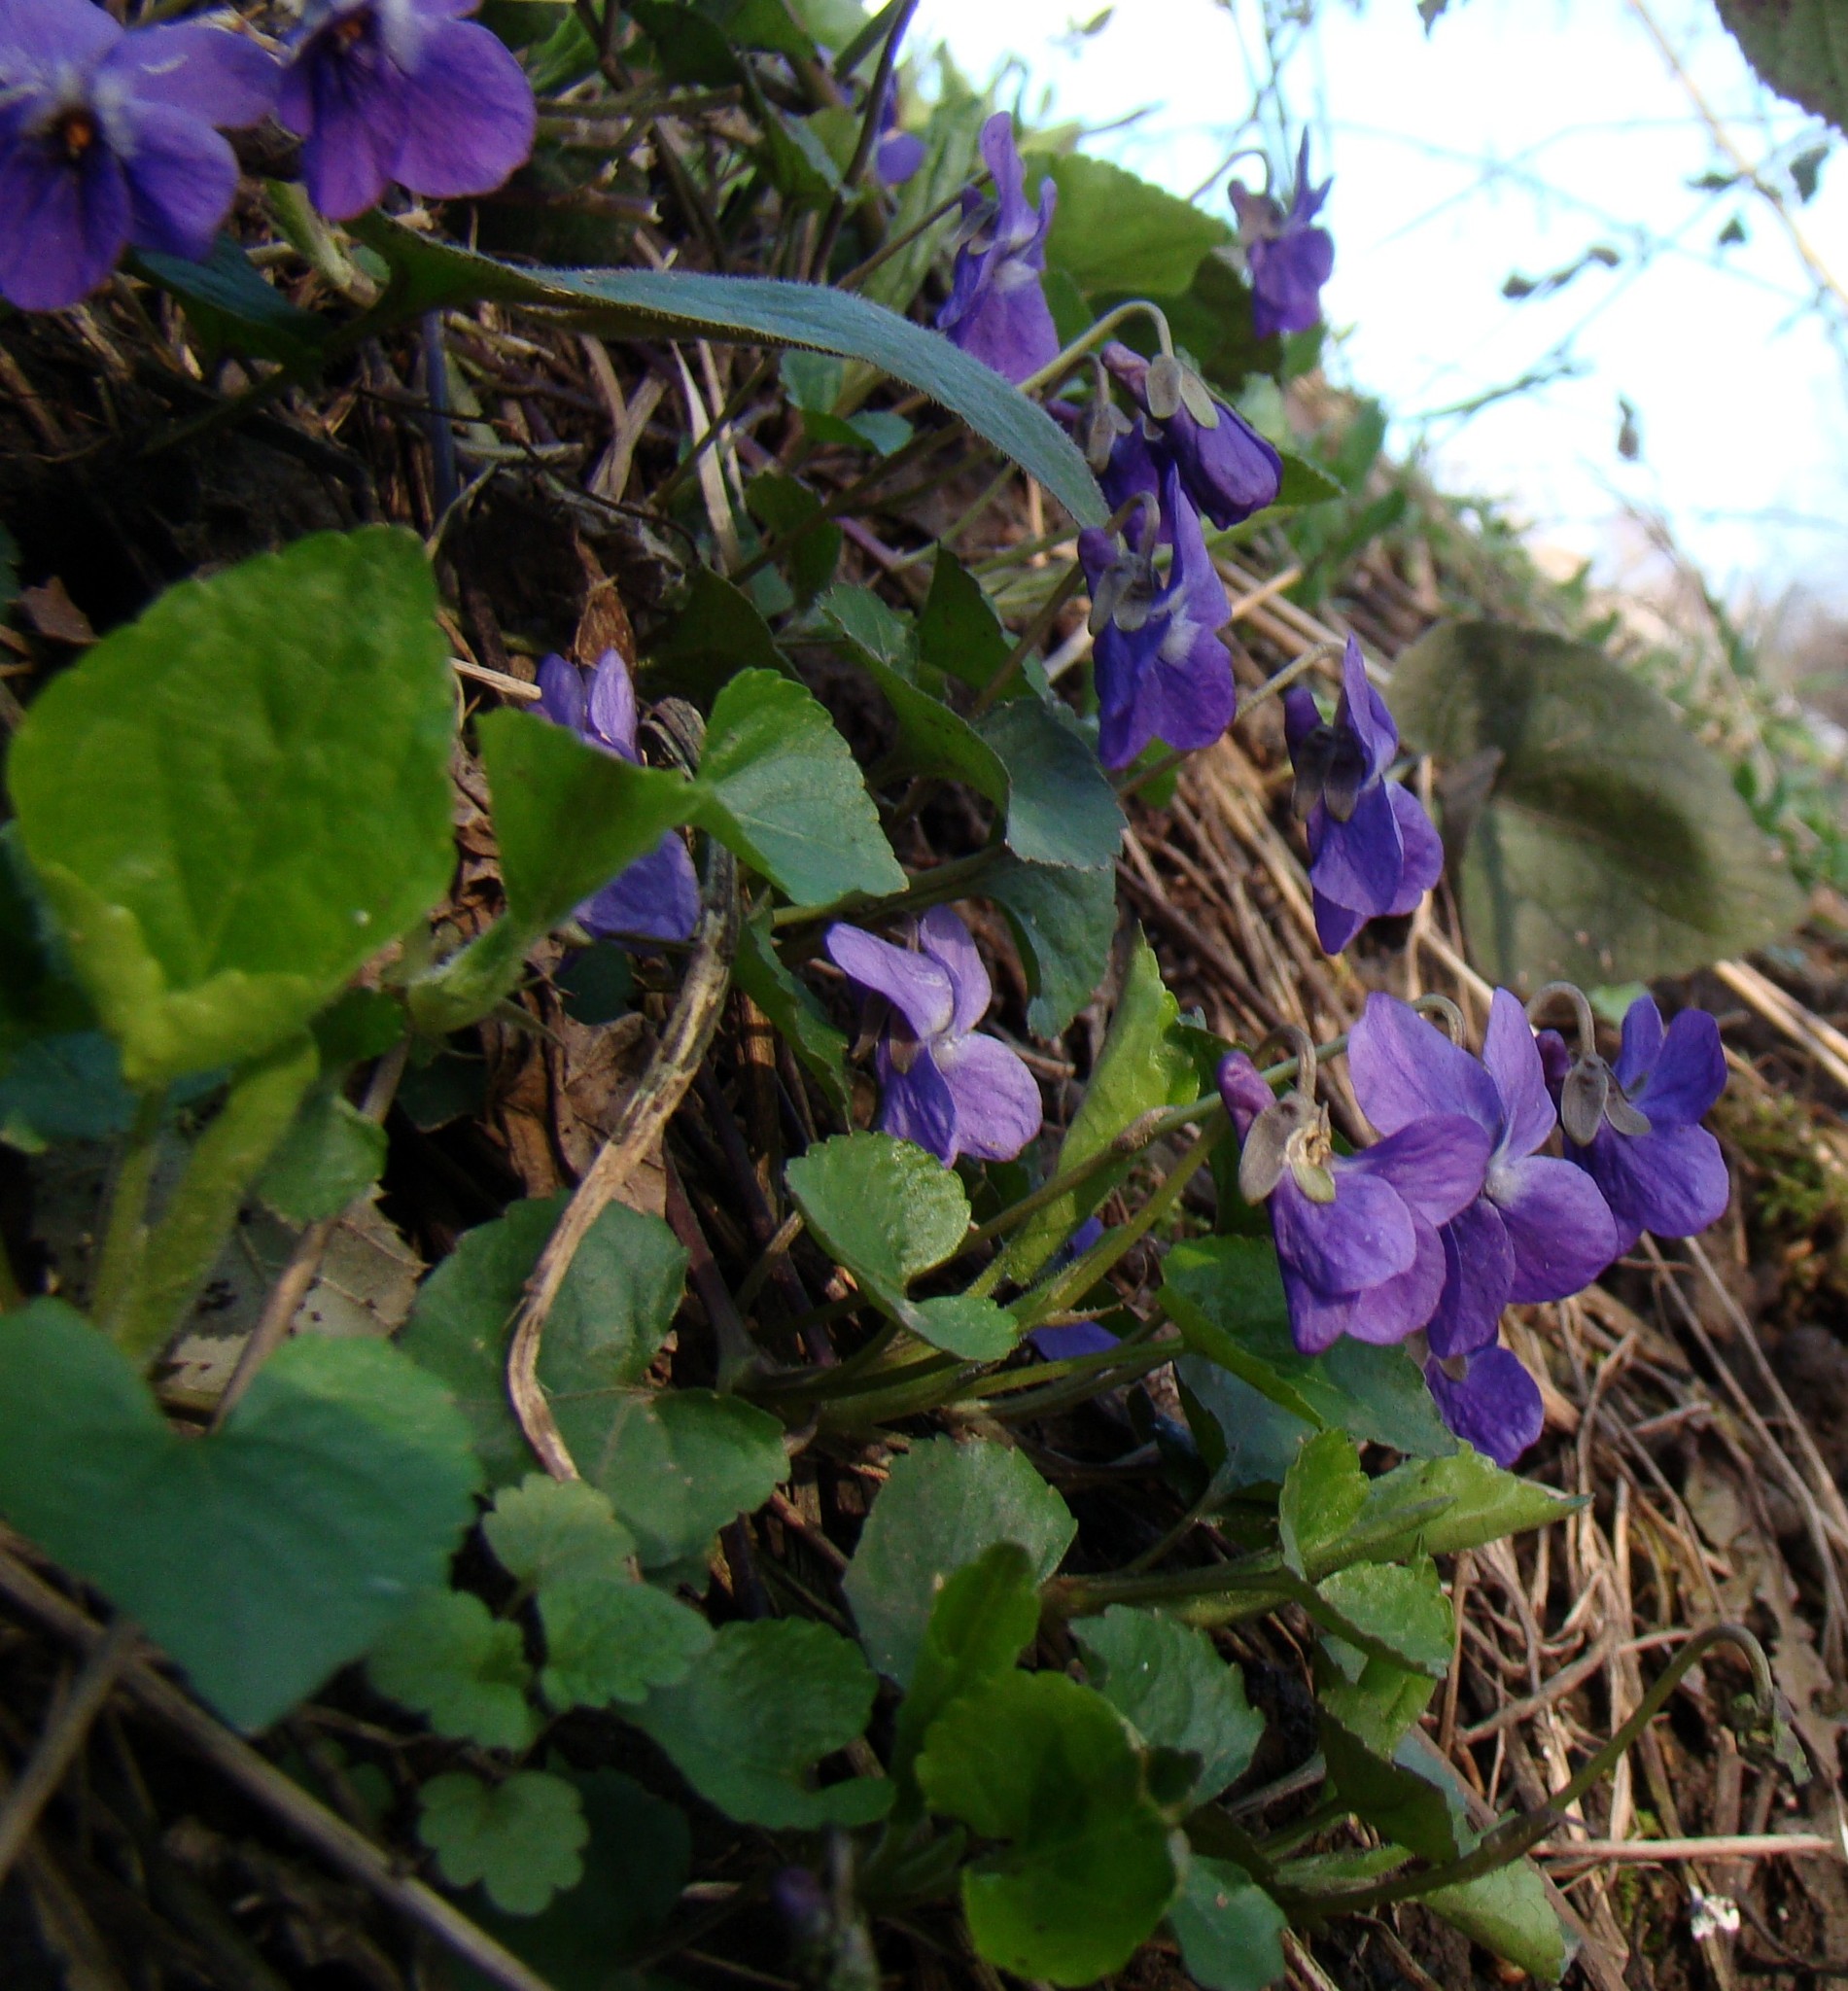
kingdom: Plantae
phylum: Tracheophyta
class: Magnoliopsida
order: Malpighiales
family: Violaceae
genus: Viola
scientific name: Viola alba
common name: White violet
